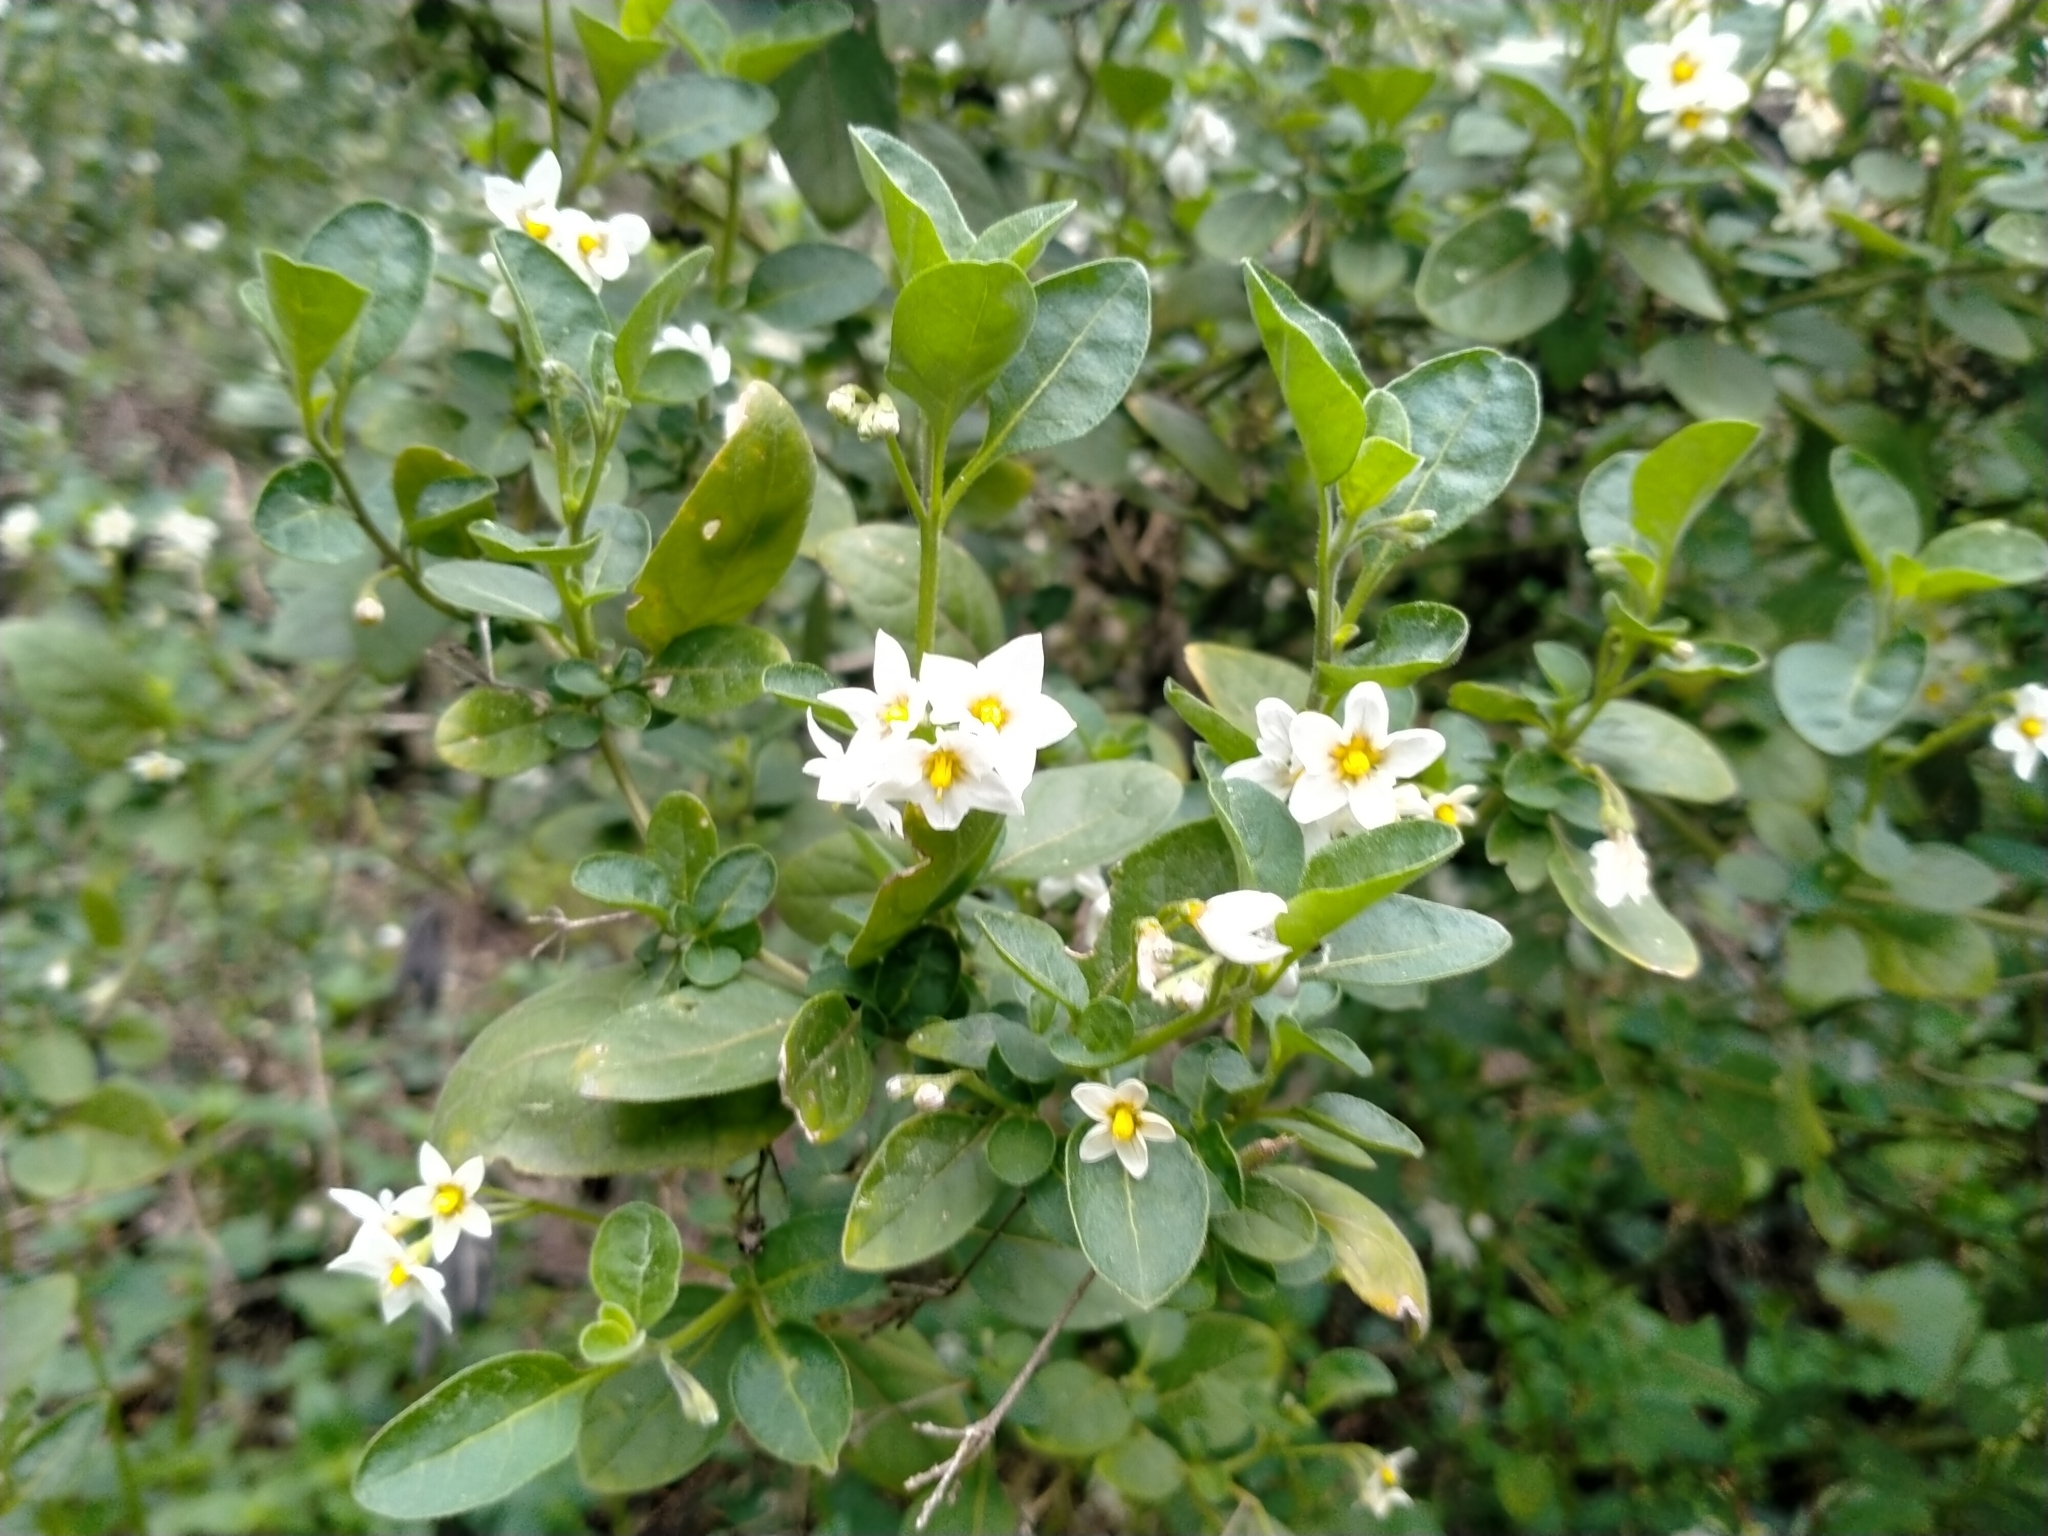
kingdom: Plantae
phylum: Tracheophyta
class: Magnoliopsida
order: Solanales
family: Solanaceae
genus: Solanum
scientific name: Solanum chenopodioides
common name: Tall nightshade
